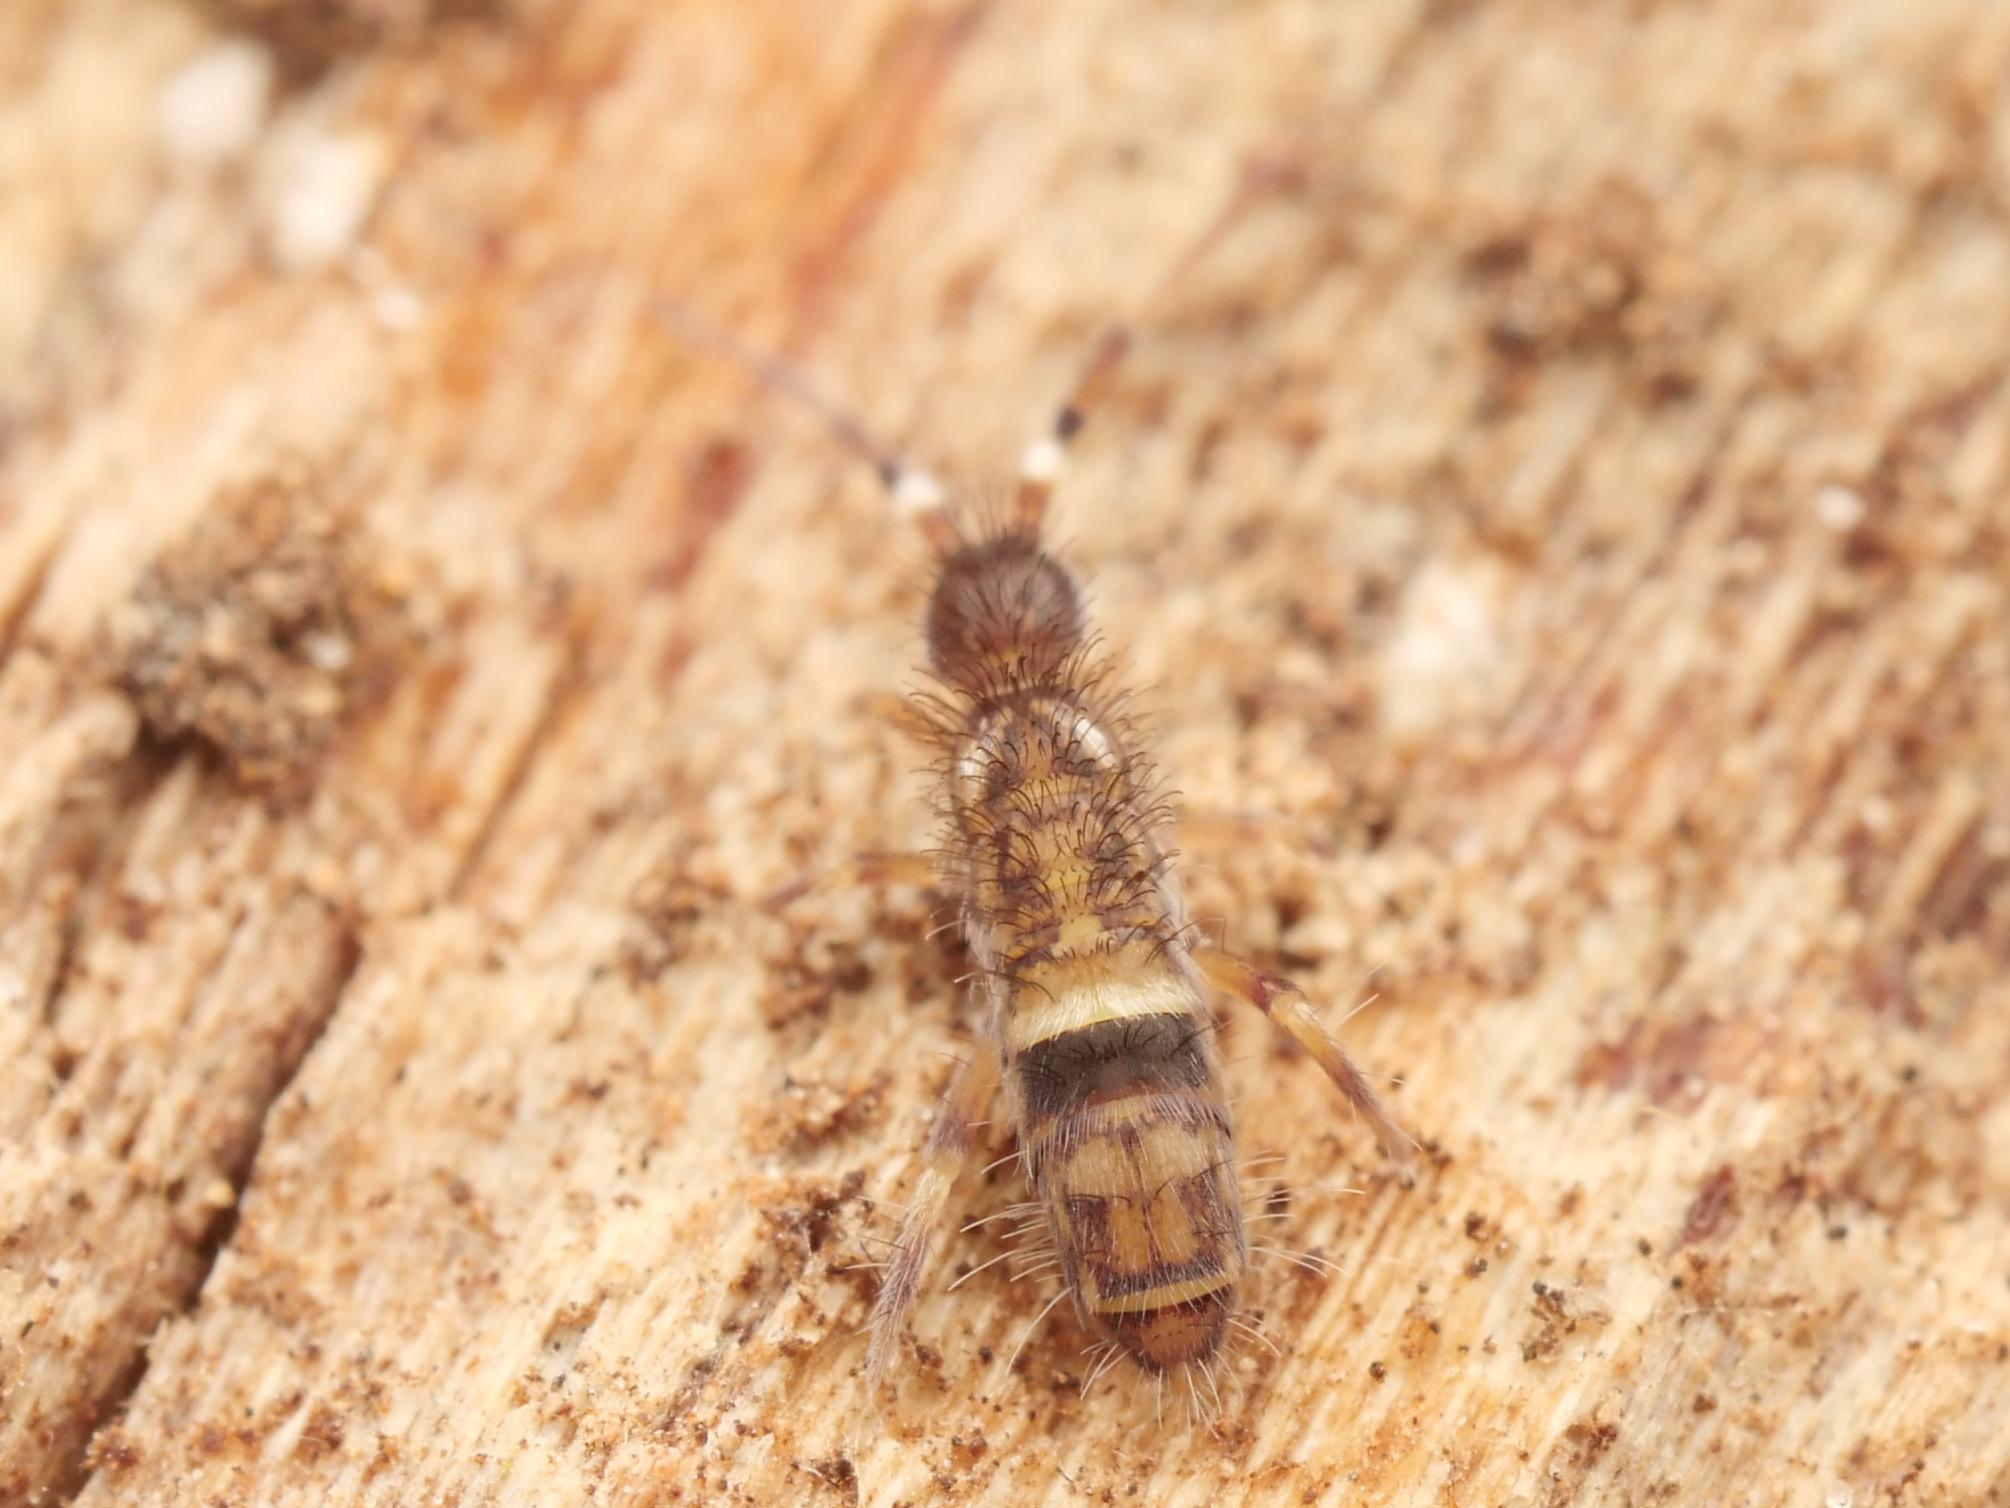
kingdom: Animalia
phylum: Arthropoda
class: Collembola
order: Entomobryomorpha
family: Orchesellidae
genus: Orchesella
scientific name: Orchesella cincta
